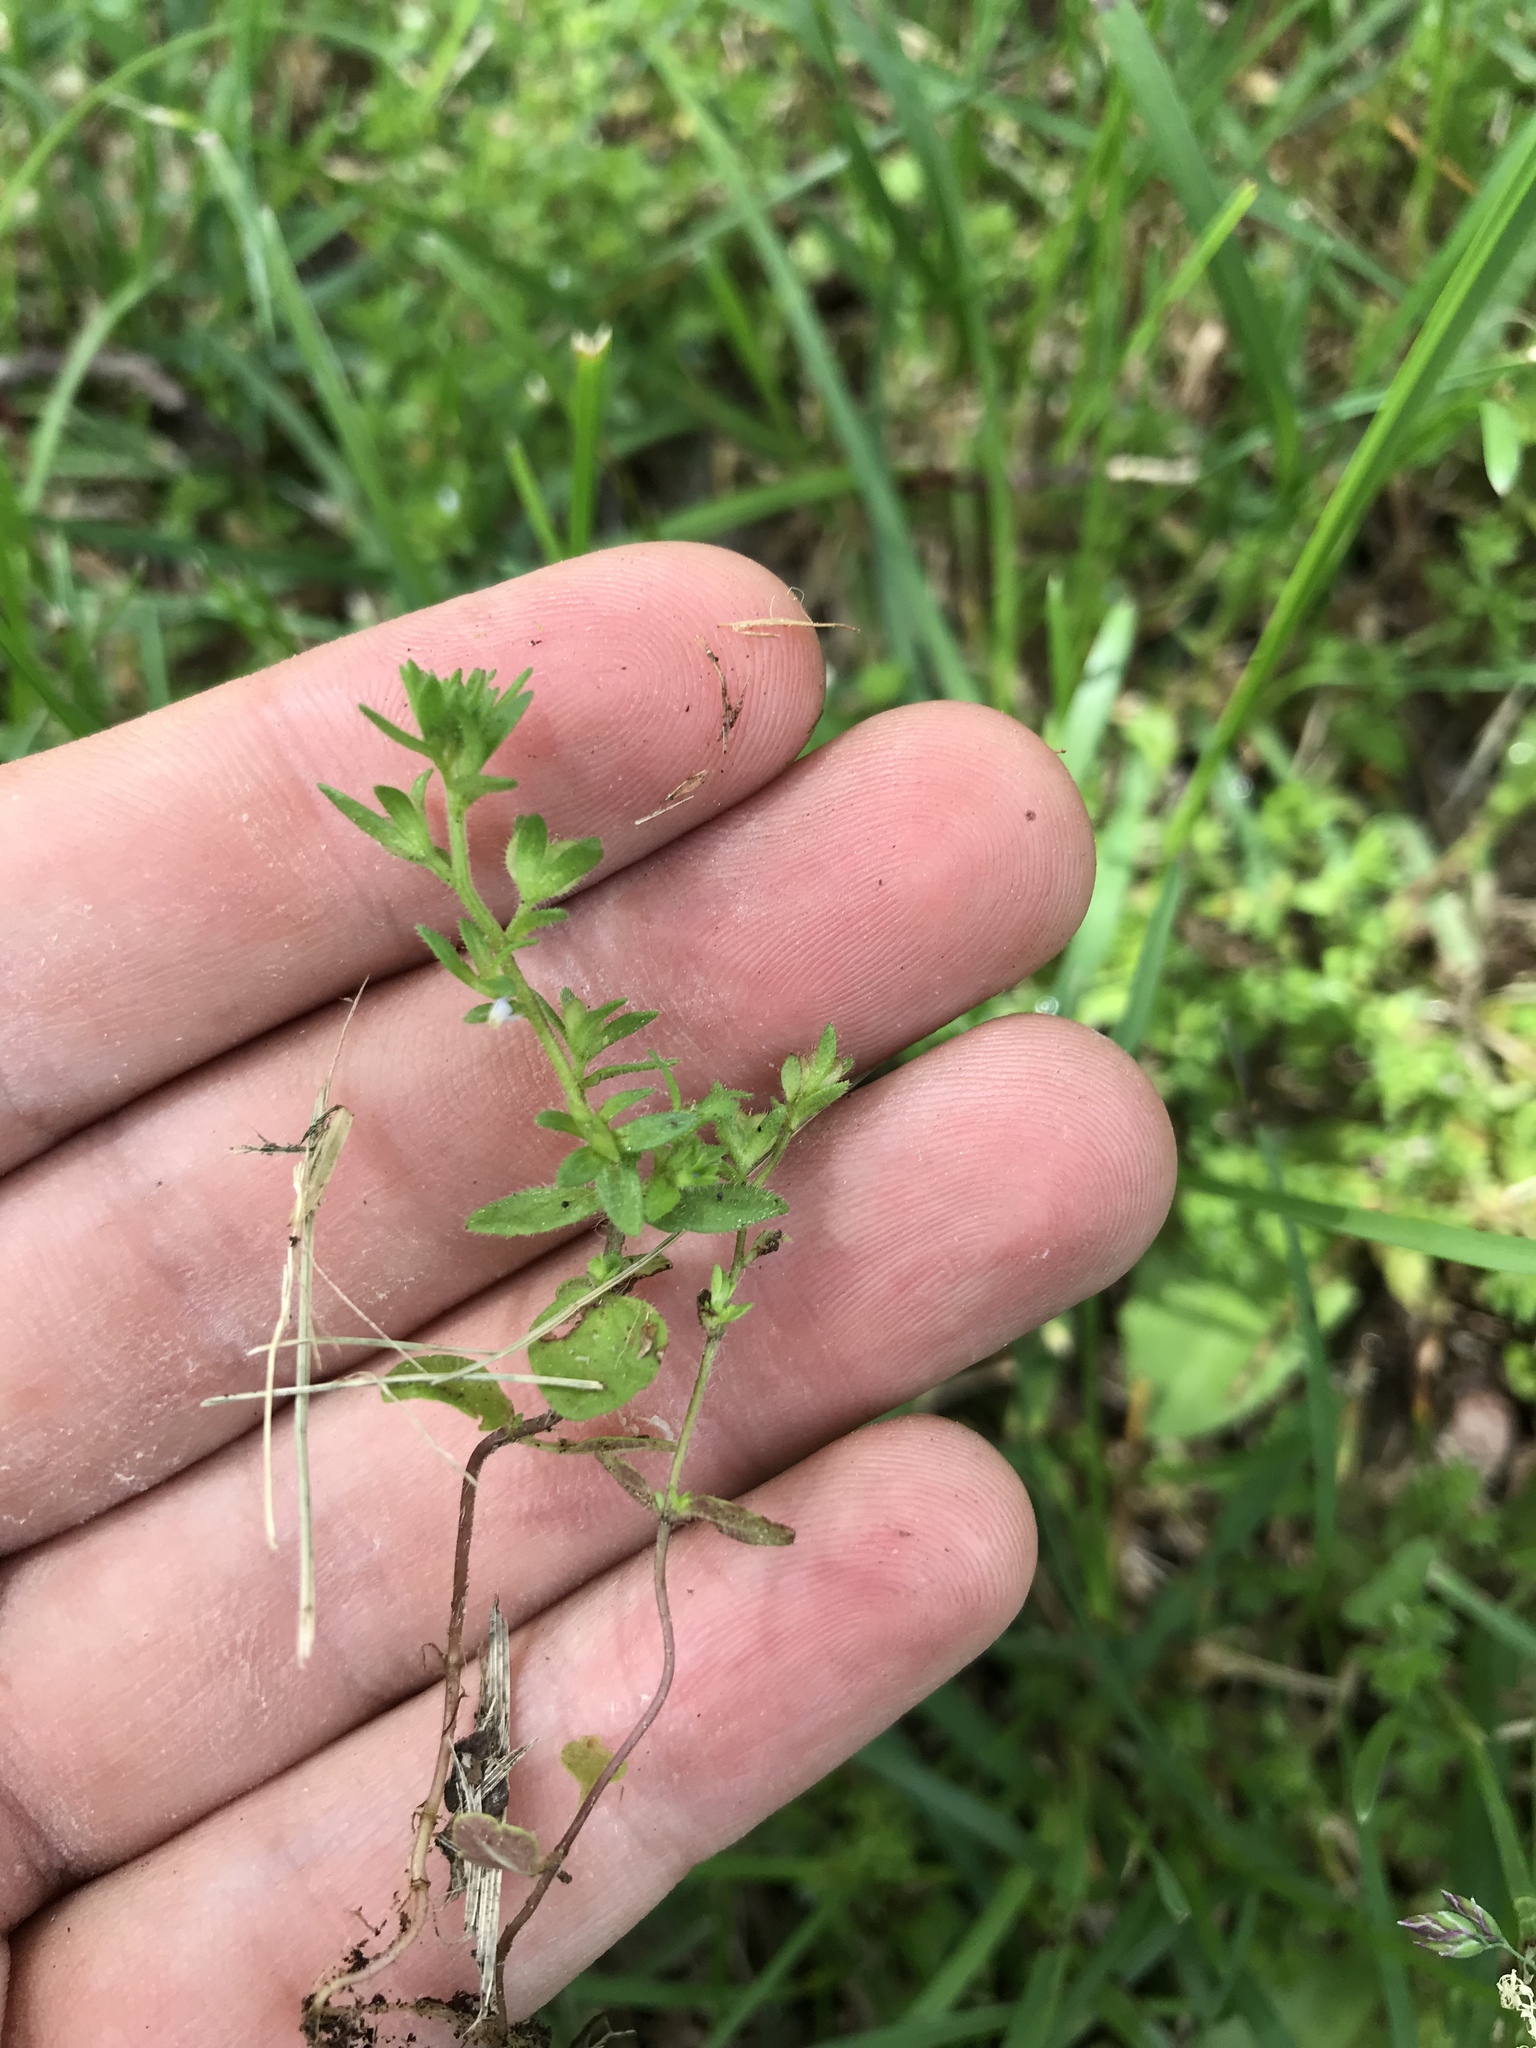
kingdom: Plantae
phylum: Tracheophyta
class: Magnoliopsida
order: Lamiales
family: Plantaginaceae
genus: Veronica
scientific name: Veronica arvensis
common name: Corn speedwell
